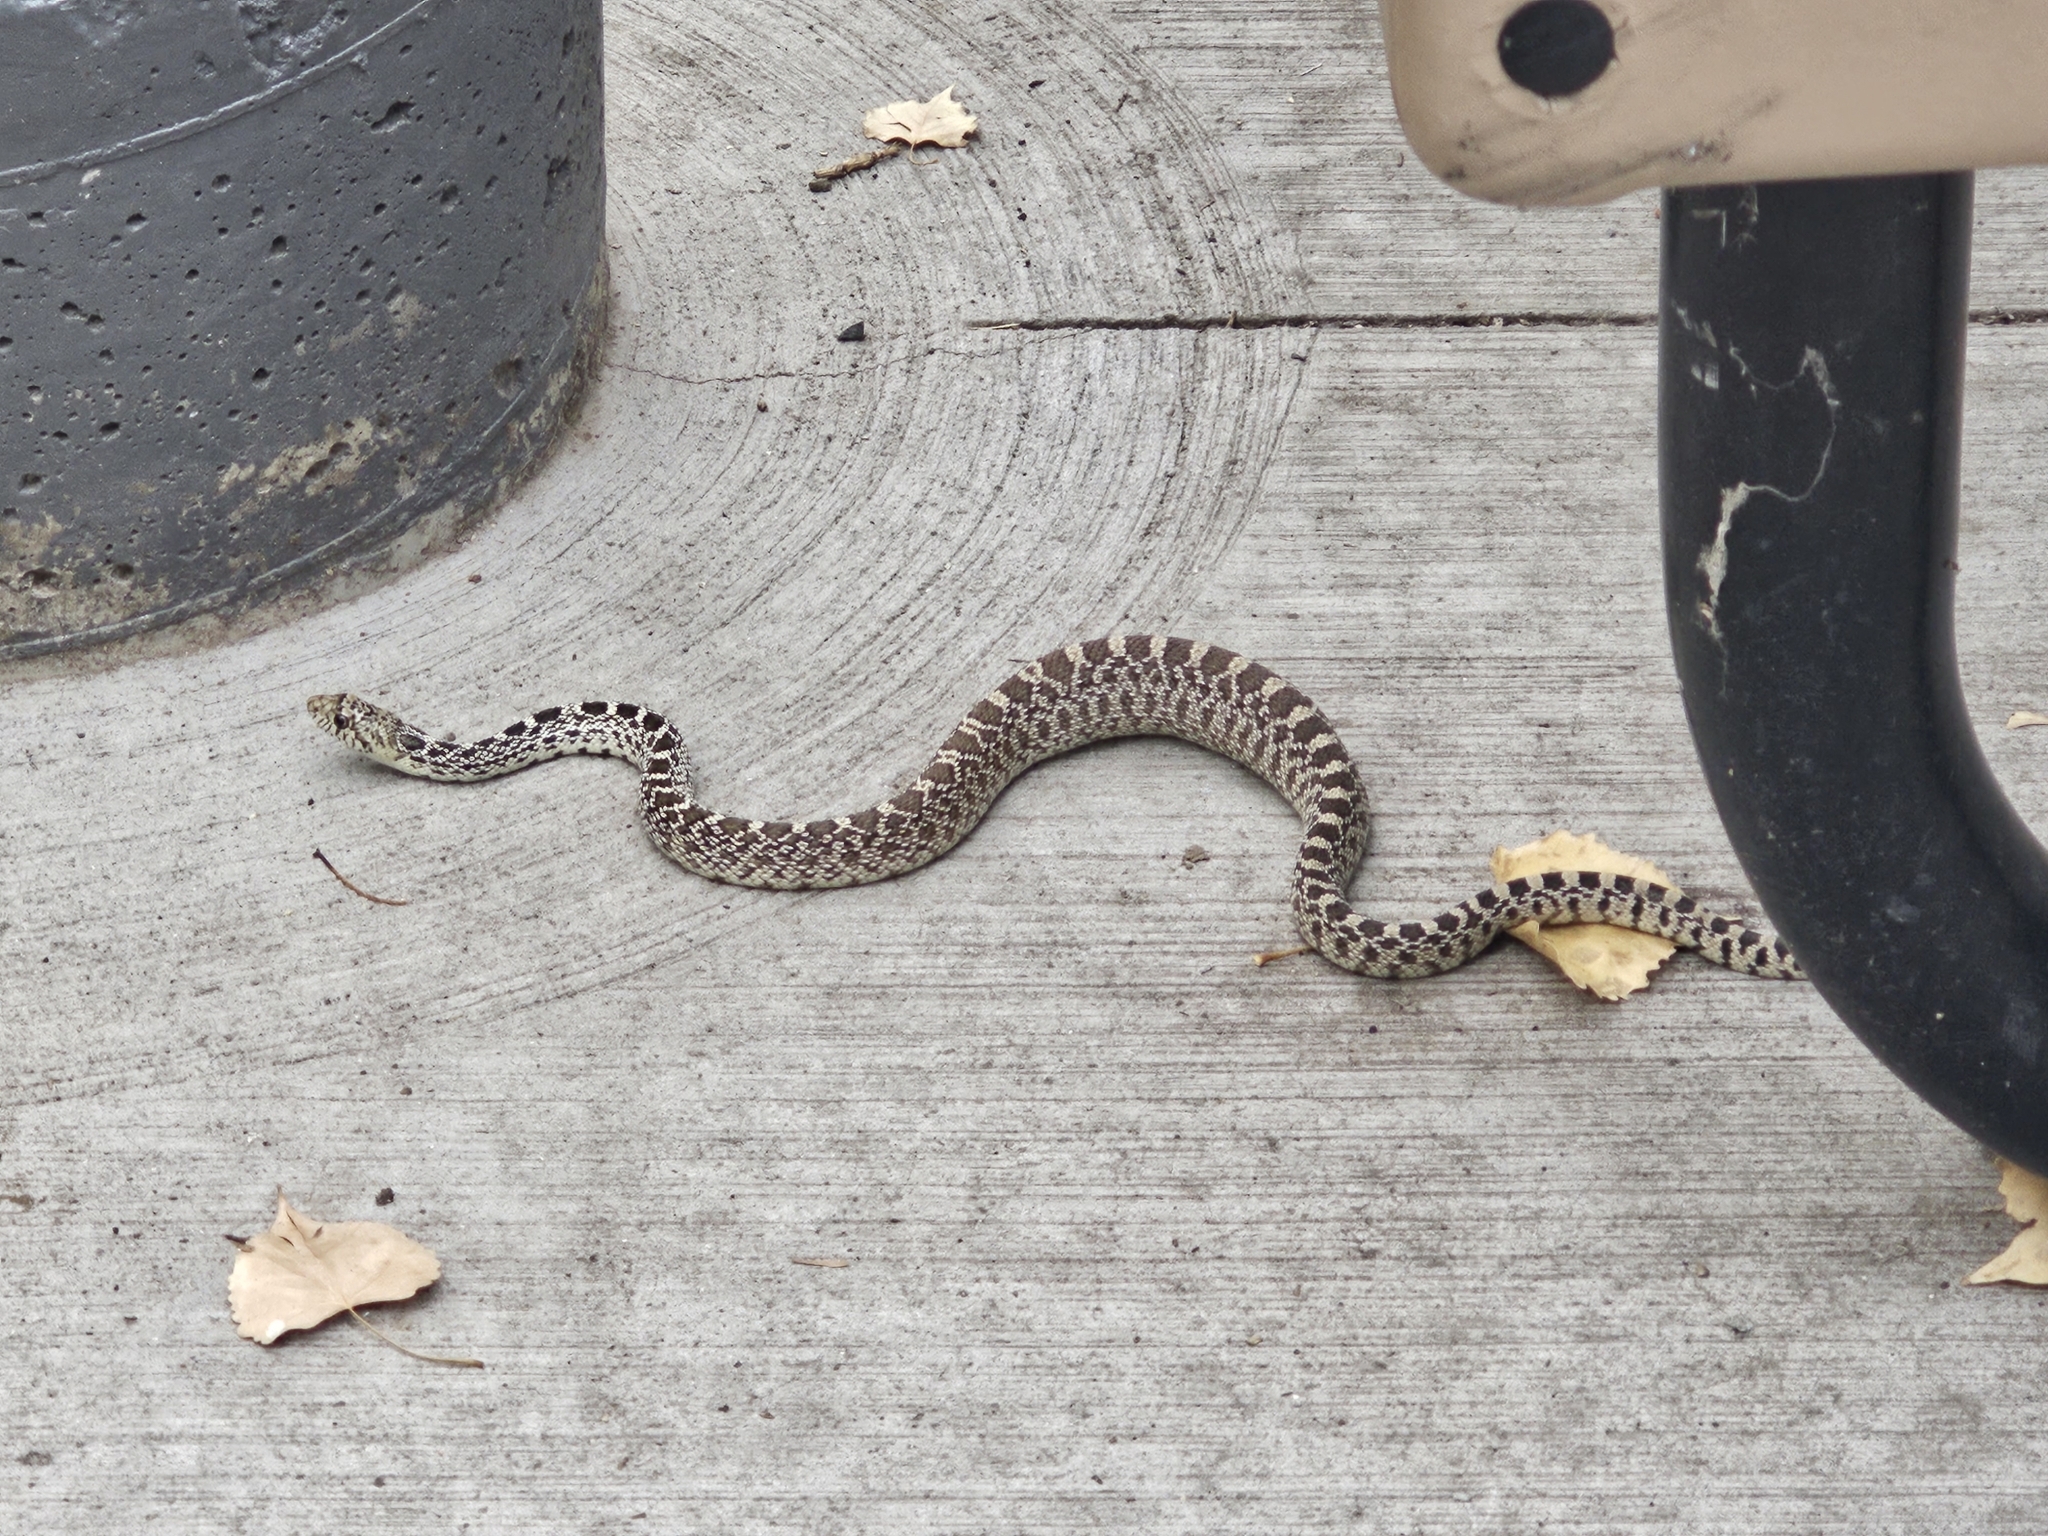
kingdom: Animalia
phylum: Chordata
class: Squamata
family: Colubridae
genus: Pituophis
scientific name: Pituophis catenifer
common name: Gopher snake
